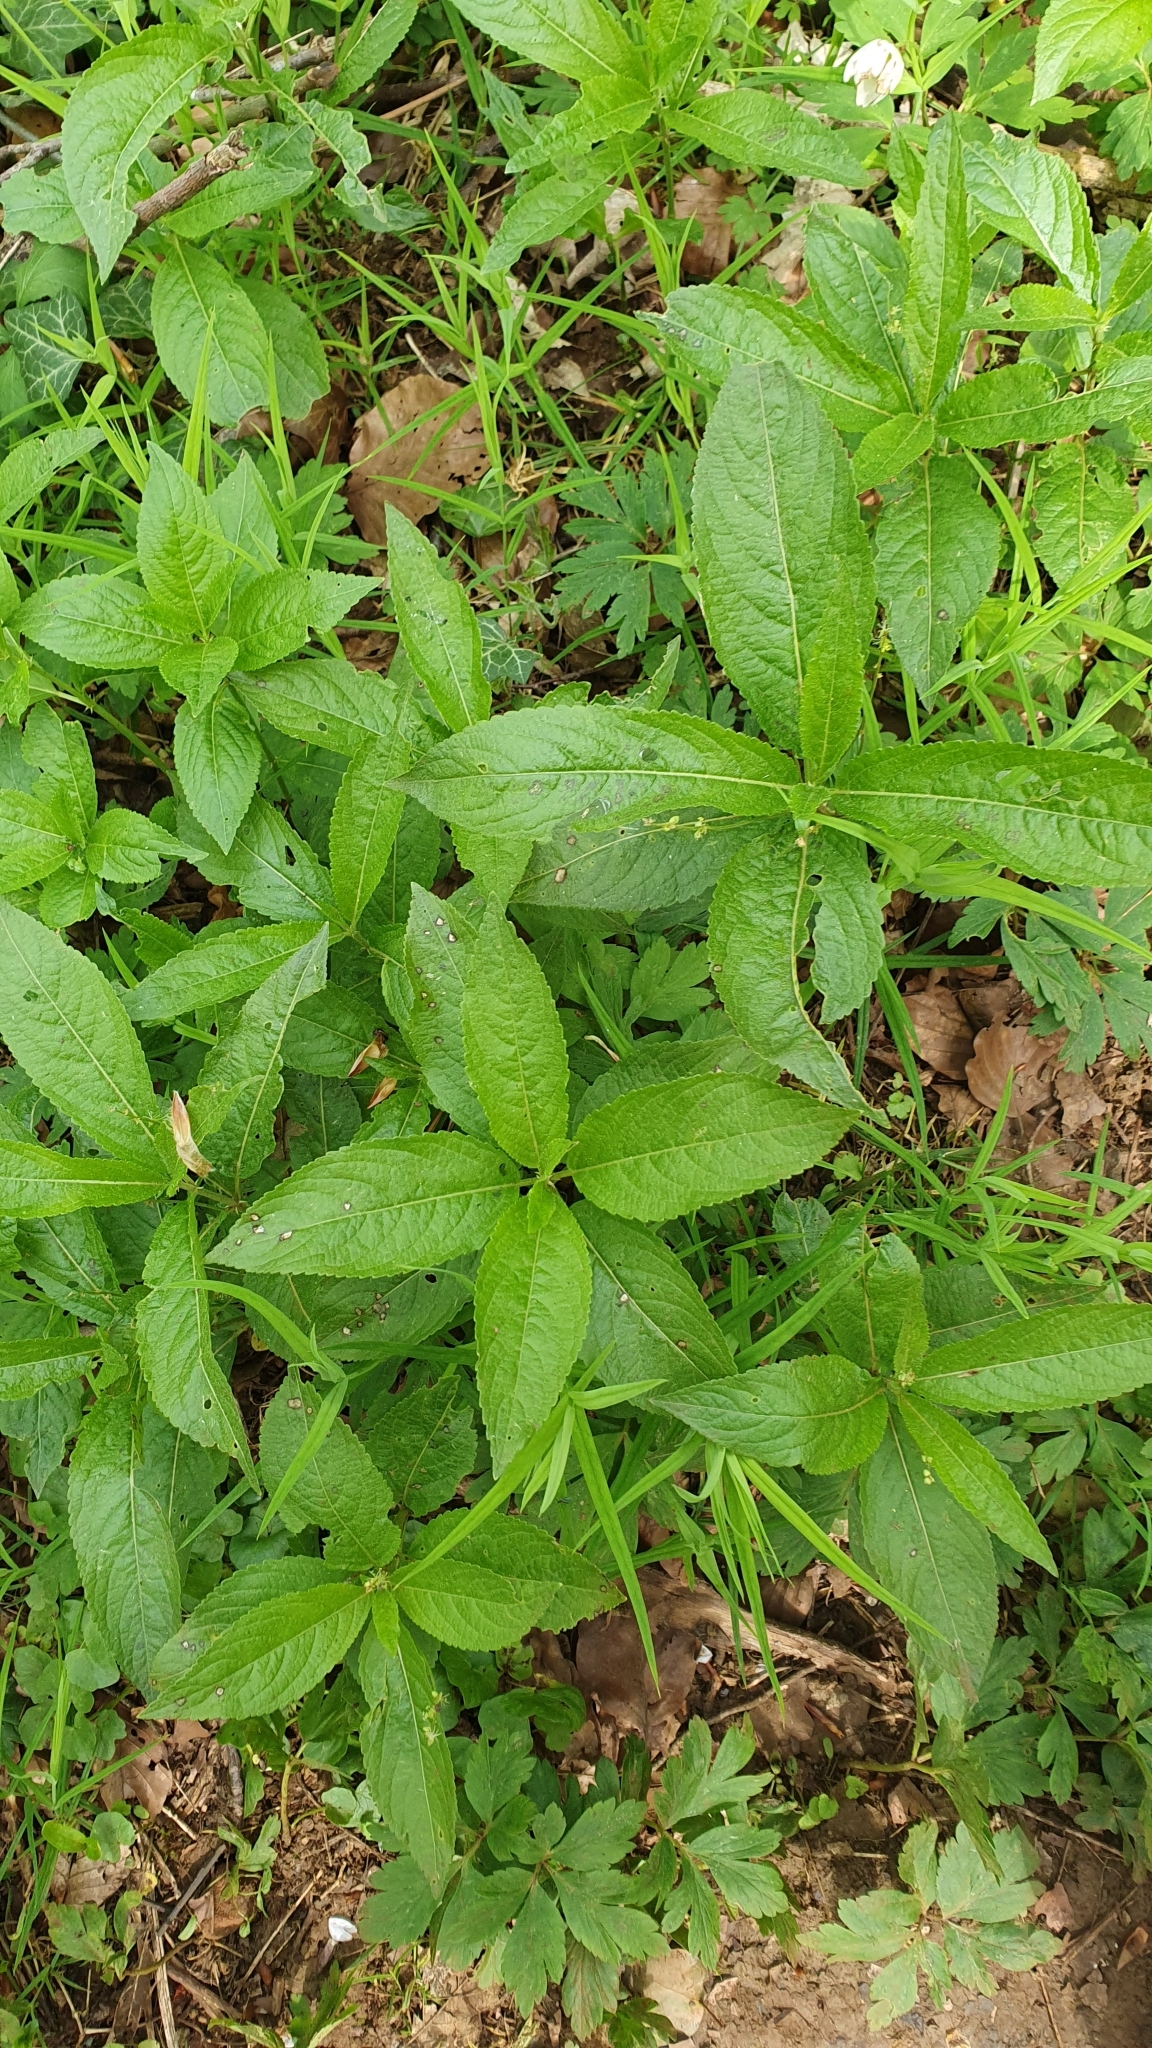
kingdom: Plantae
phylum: Tracheophyta
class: Magnoliopsida
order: Malpighiales
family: Euphorbiaceae
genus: Mercurialis
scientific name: Mercurialis perennis
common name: Dog mercury
